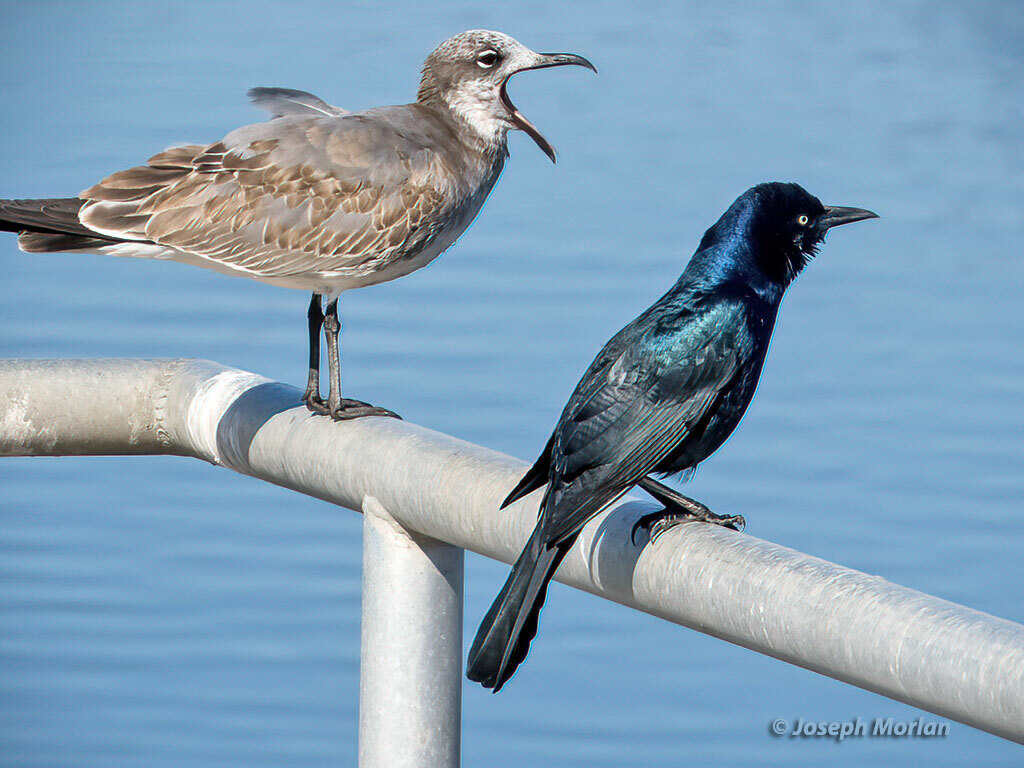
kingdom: Animalia
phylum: Chordata
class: Aves
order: Passeriformes
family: Icteridae
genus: Quiscalus
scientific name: Quiscalus major
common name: Boat-tailed grackle
